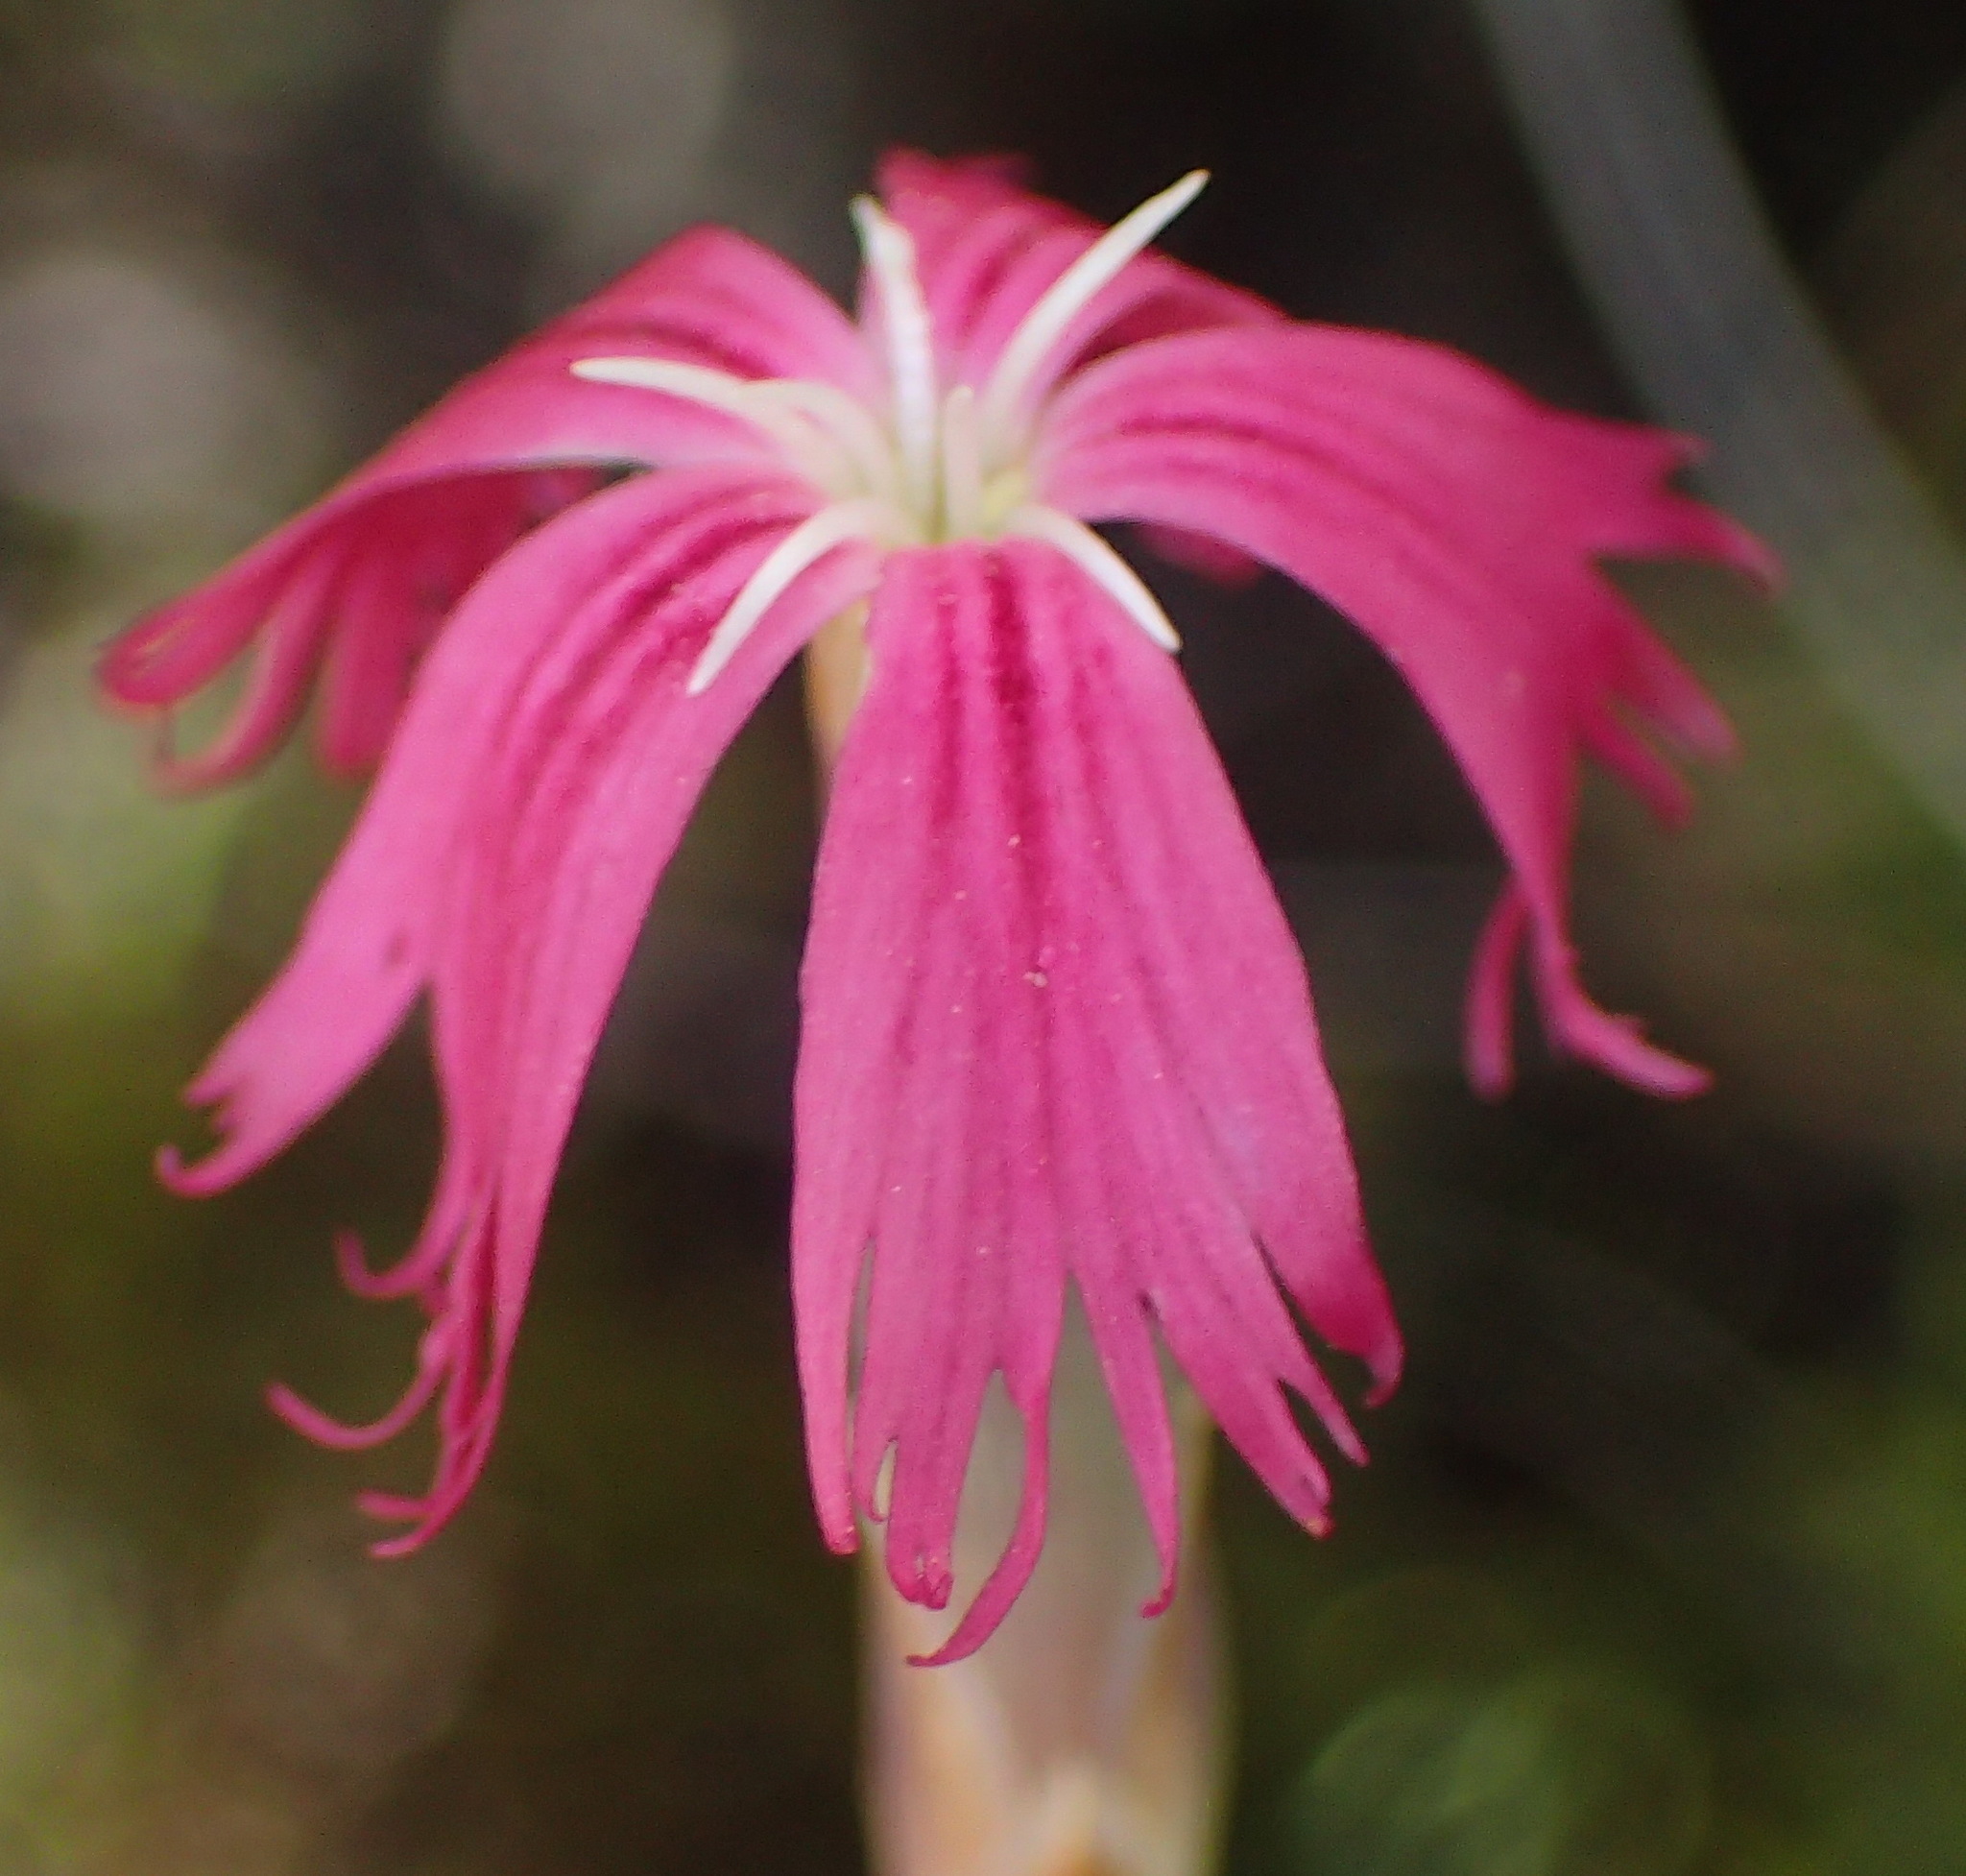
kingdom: Plantae
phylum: Tracheophyta
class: Magnoliopsida
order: Caryophyllales
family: Caryophyllaceae
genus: Dianthus
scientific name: Dianthus bolusii
